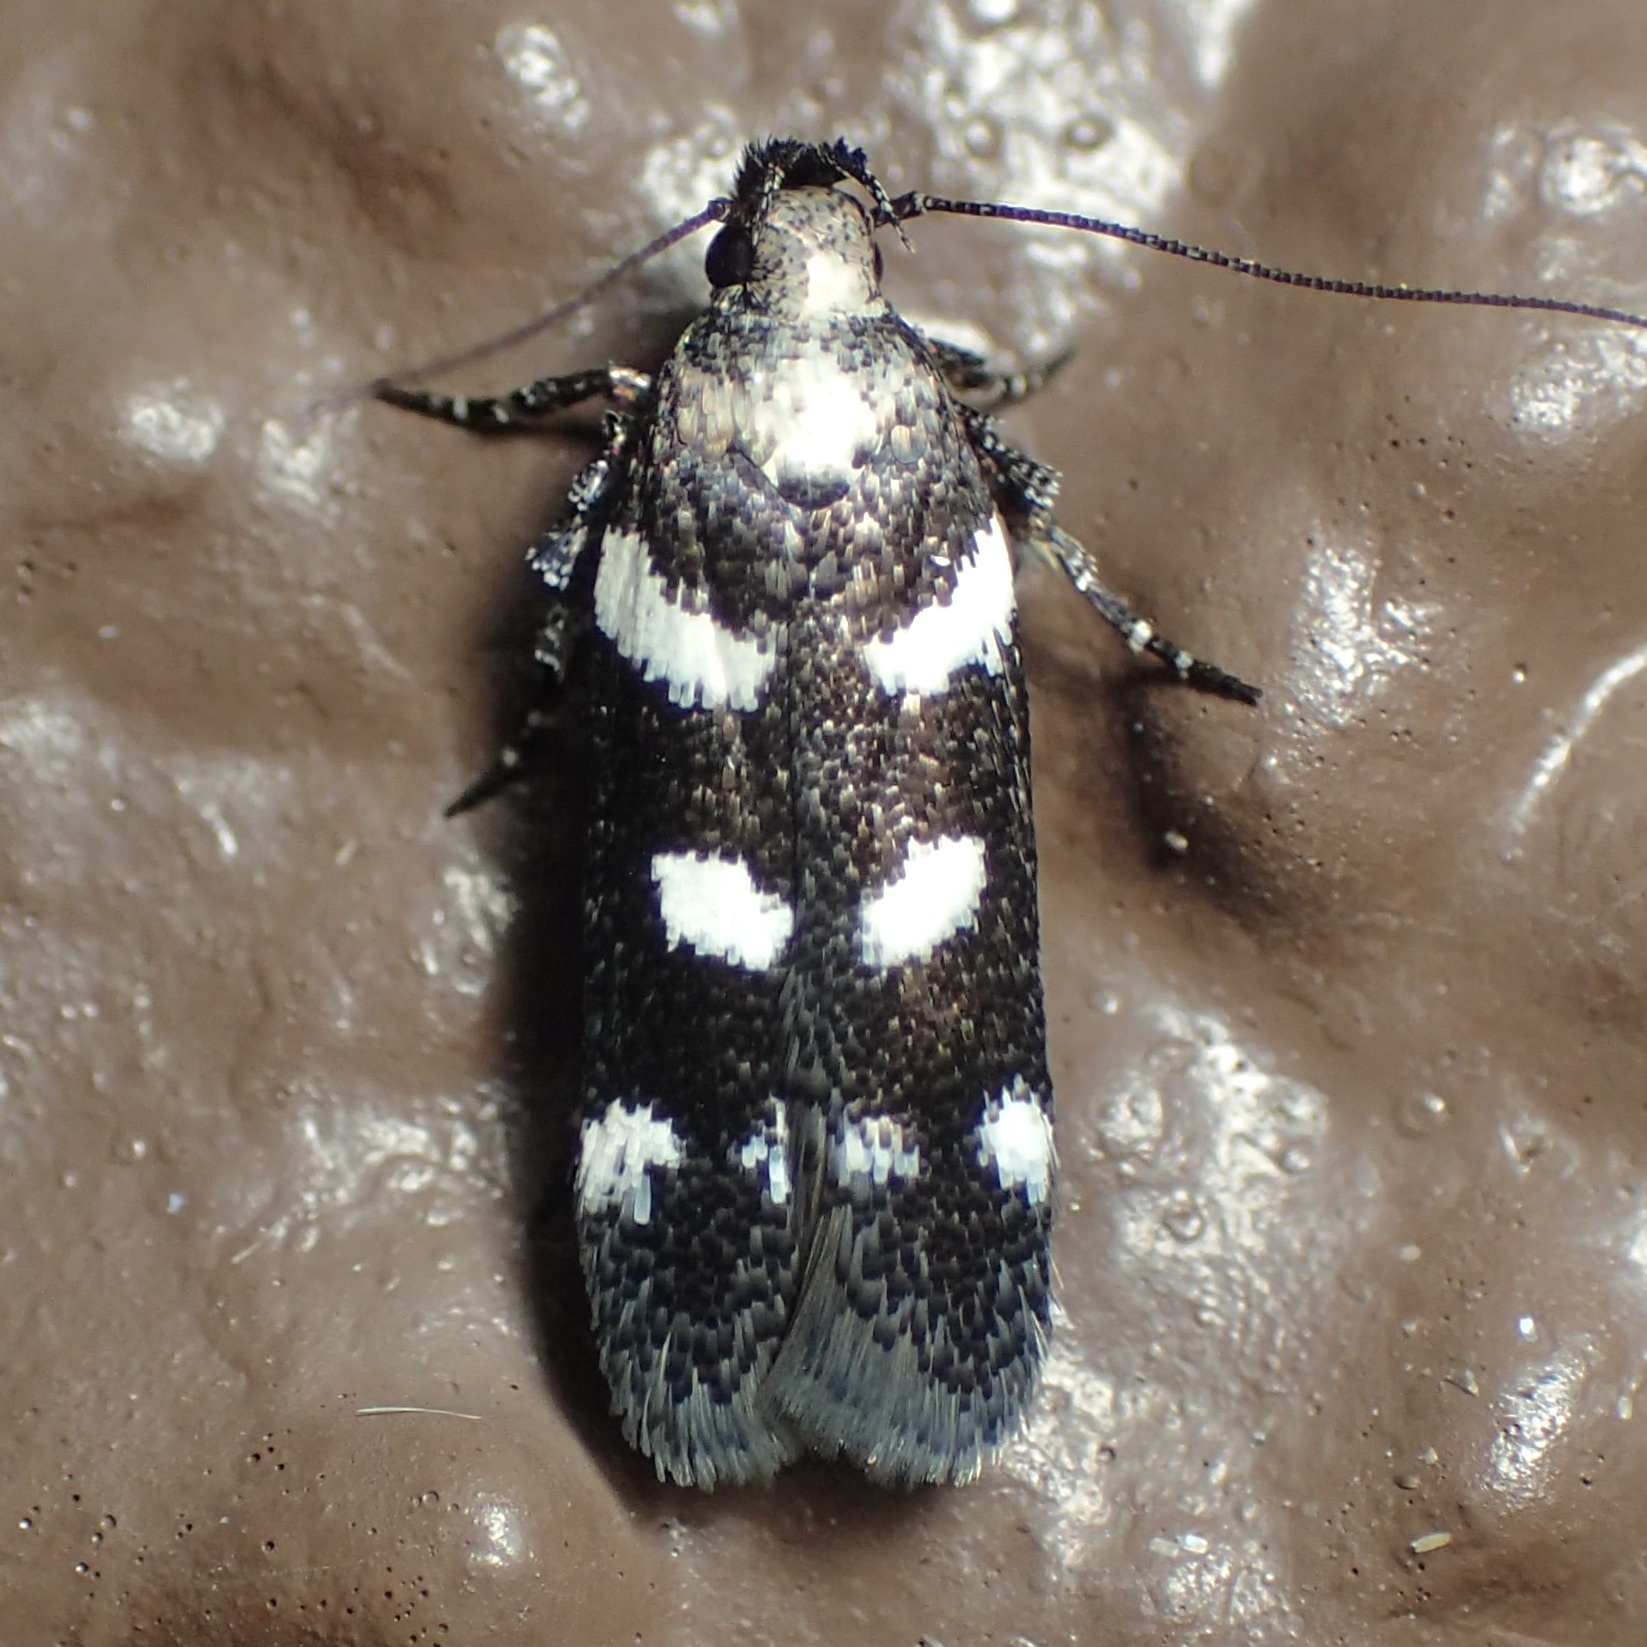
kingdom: Animalia
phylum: Arthropoda
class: Insecta
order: Lepidoptera
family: Gelechiidae
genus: Filatima
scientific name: Filatima arizonella
